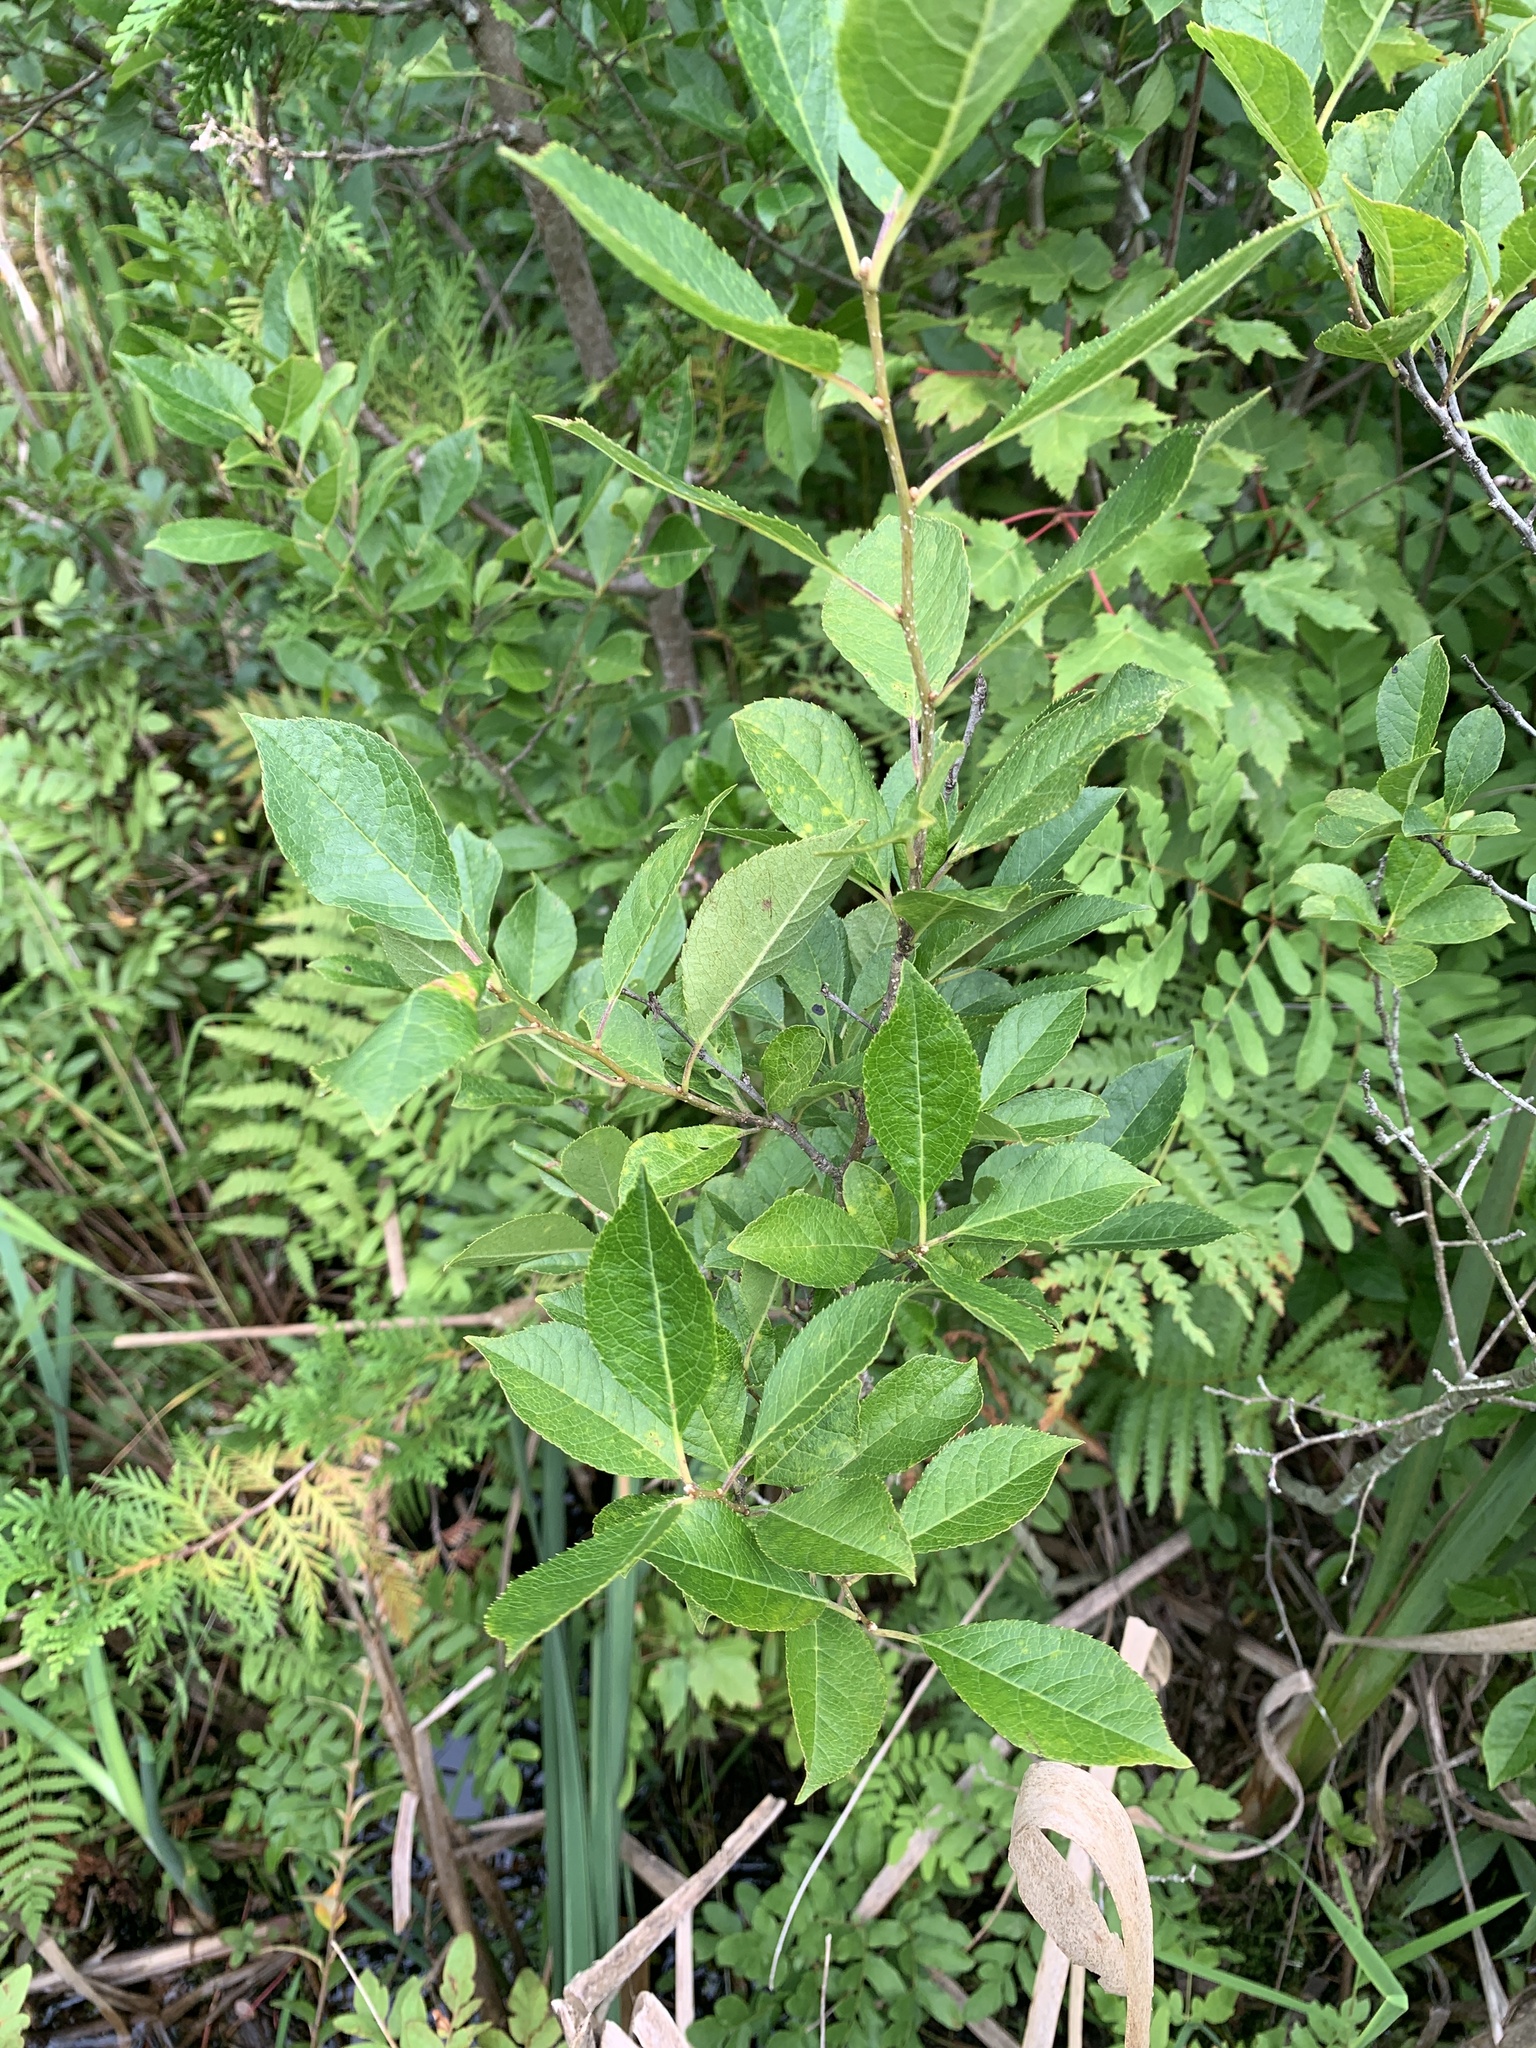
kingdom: Plantae
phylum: Tracheophyta
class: Magnoliopsida
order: Aquifoliales
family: Aquifoliaceae
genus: Ilex
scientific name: Ilex verticillata
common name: Virginia winterberry
